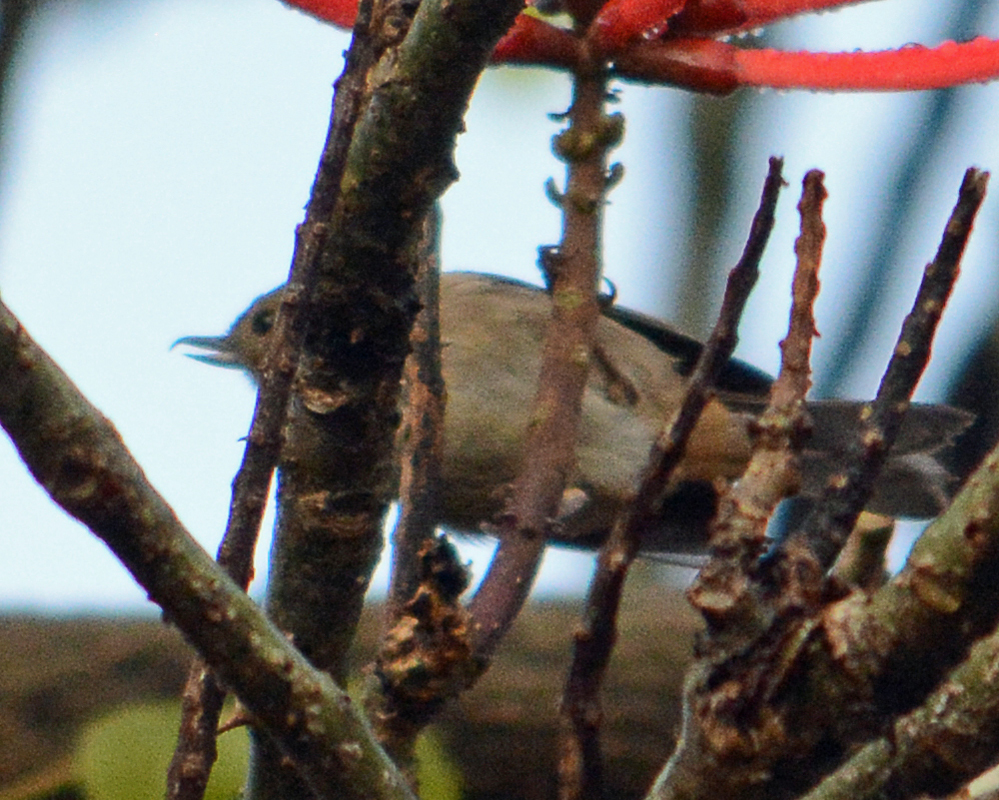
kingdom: Animalia
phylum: Chordata
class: Aves
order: Passeriformes
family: Thraupidae
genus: Diglossa
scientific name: Diglossa baritula
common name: Cinnamon-bellied flowerpiercer
